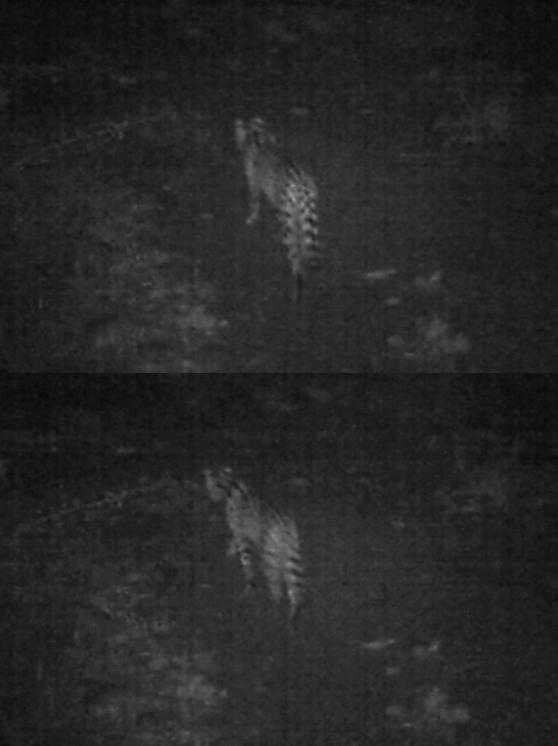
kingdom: Animalia
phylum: Chordata
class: Mammalia
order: Carnivora
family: Felidae
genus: Leptailurus
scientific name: Leptailurus serval
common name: Serval
